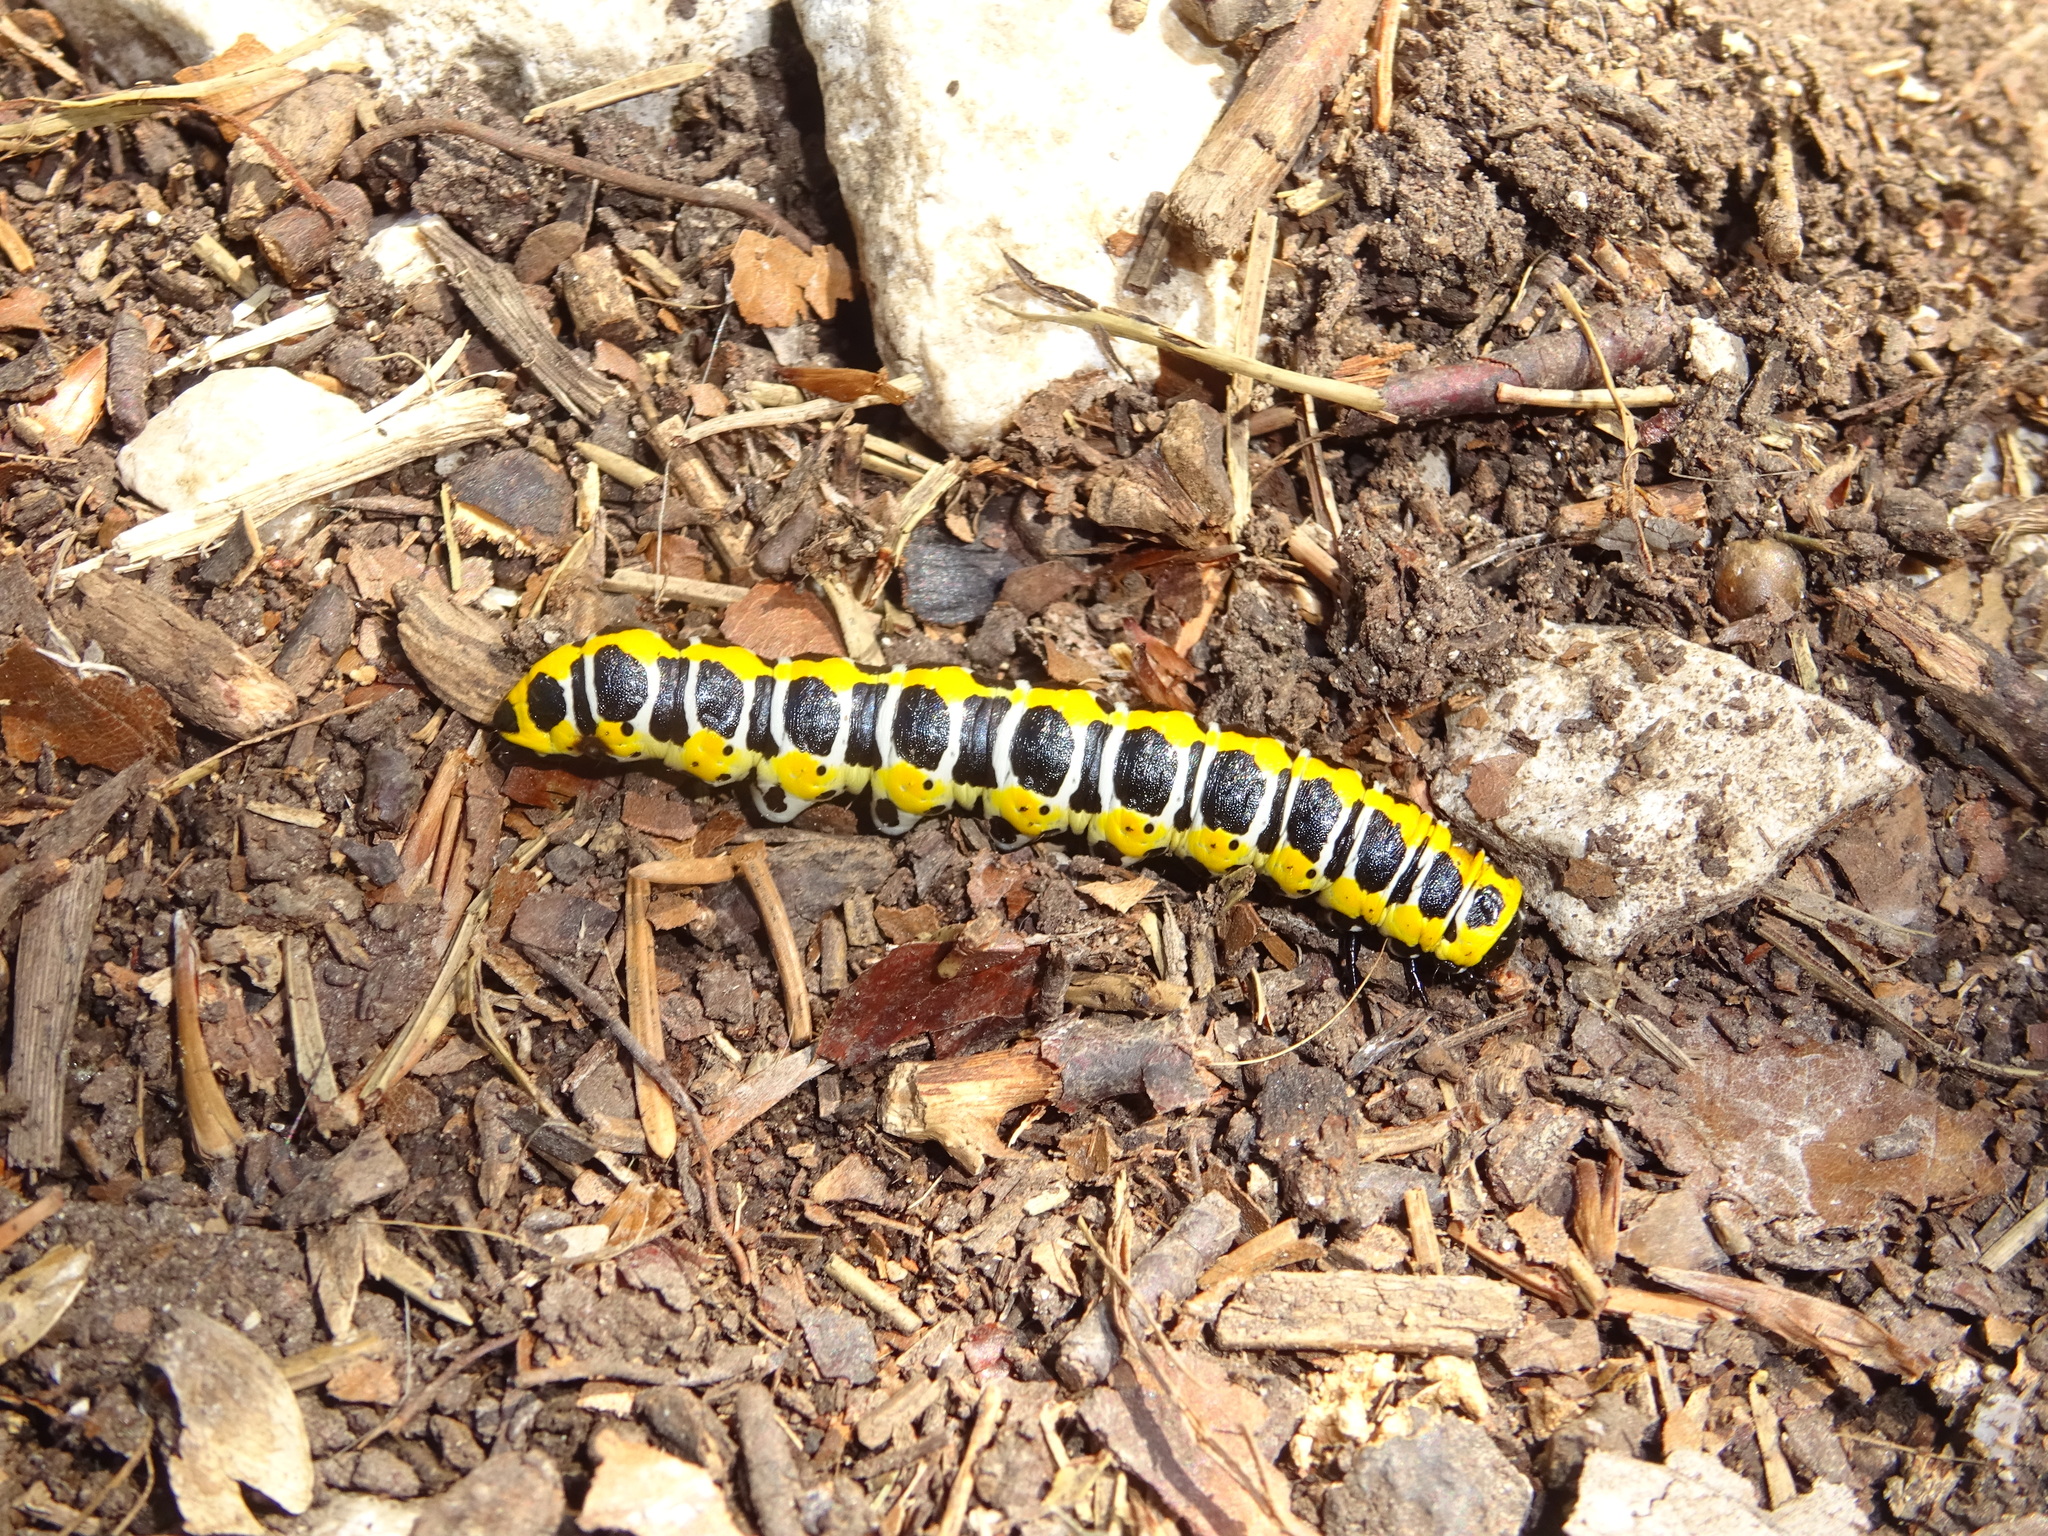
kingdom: Animalia
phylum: Arthropoda
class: Insecta
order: Lepidoptera
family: Noctuidae
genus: Cucullia
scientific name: Cucullia lactucae
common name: Lettuce shark
